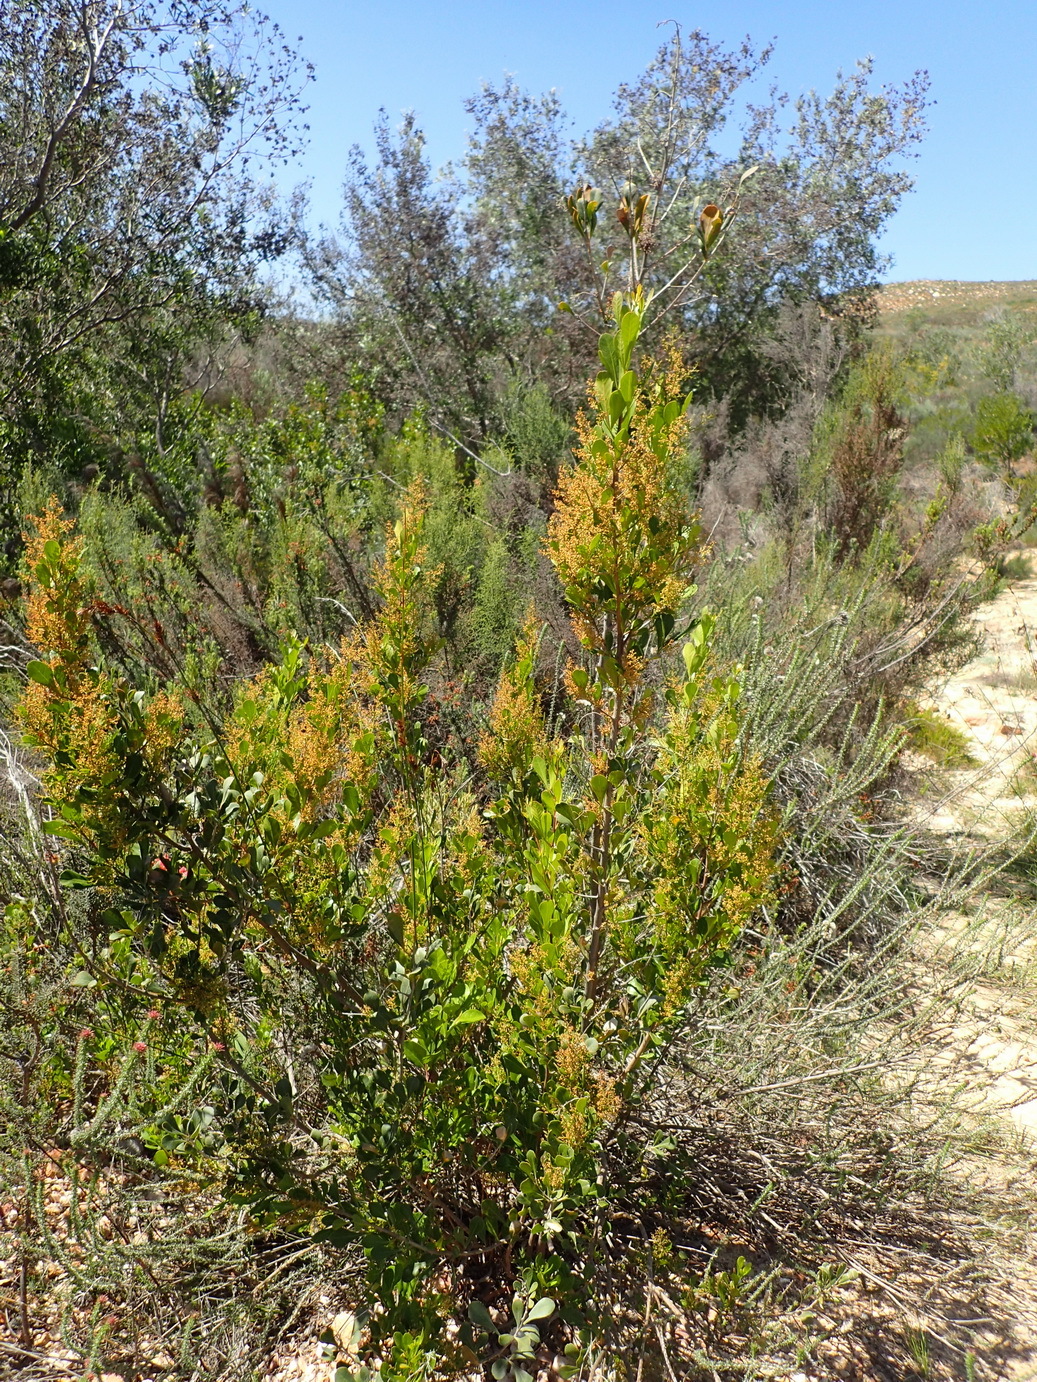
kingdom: Plantae
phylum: Tracheophyta
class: Magnoliopsida
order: Sapindales
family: Anacardiaceae
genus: Searsia
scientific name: Searsia lucida
